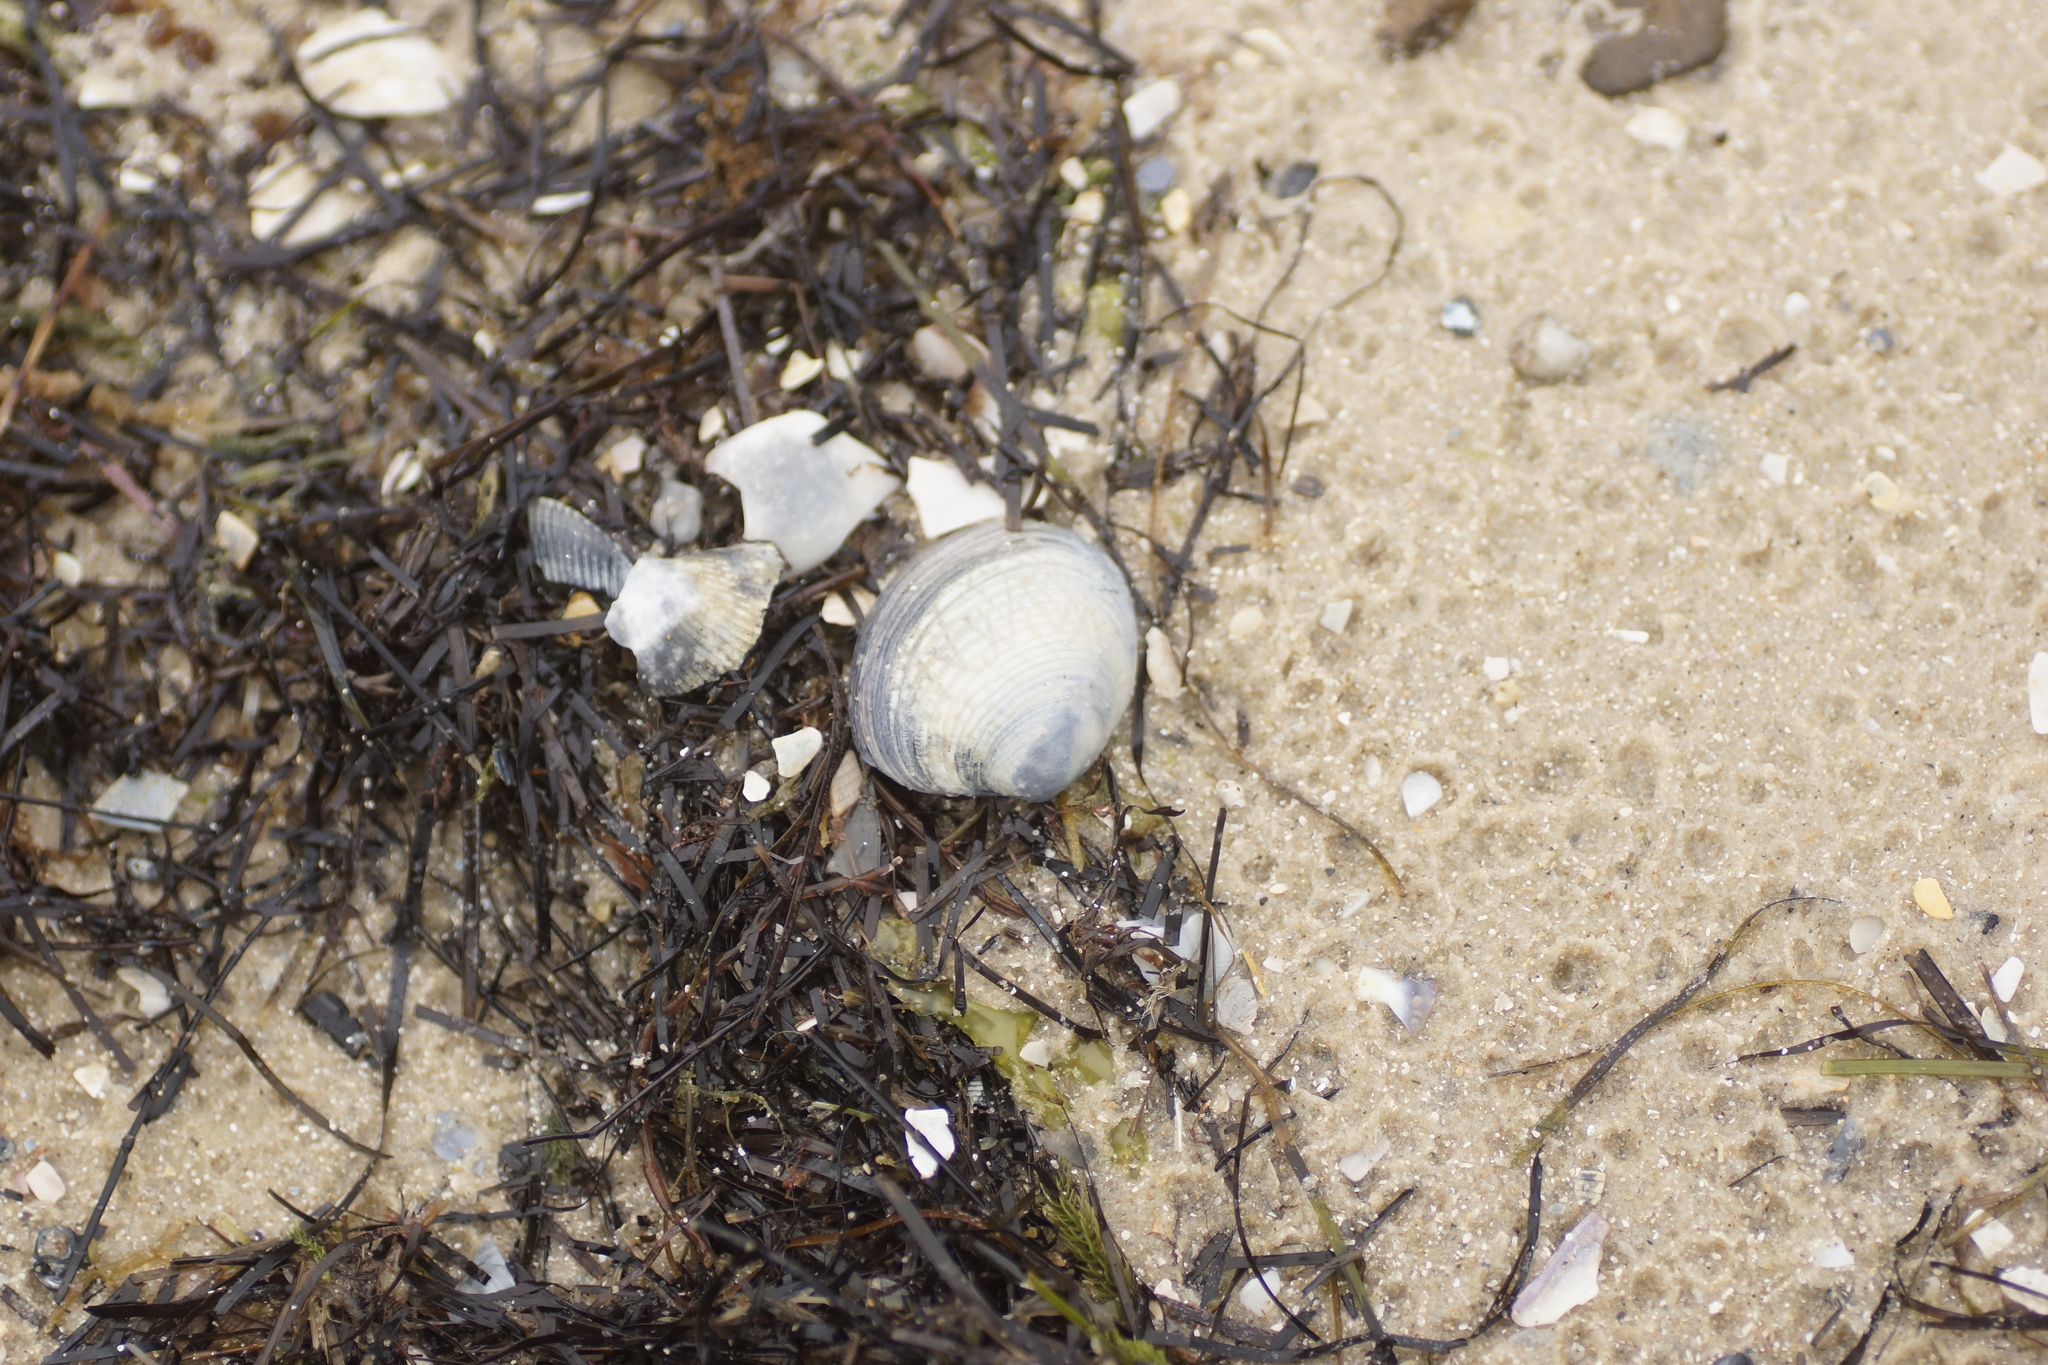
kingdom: Animalia
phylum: Mollusca
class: Bivalvia
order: Venerida
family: Veneridae
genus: Katelysia
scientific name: Katelysia rhytiphora
